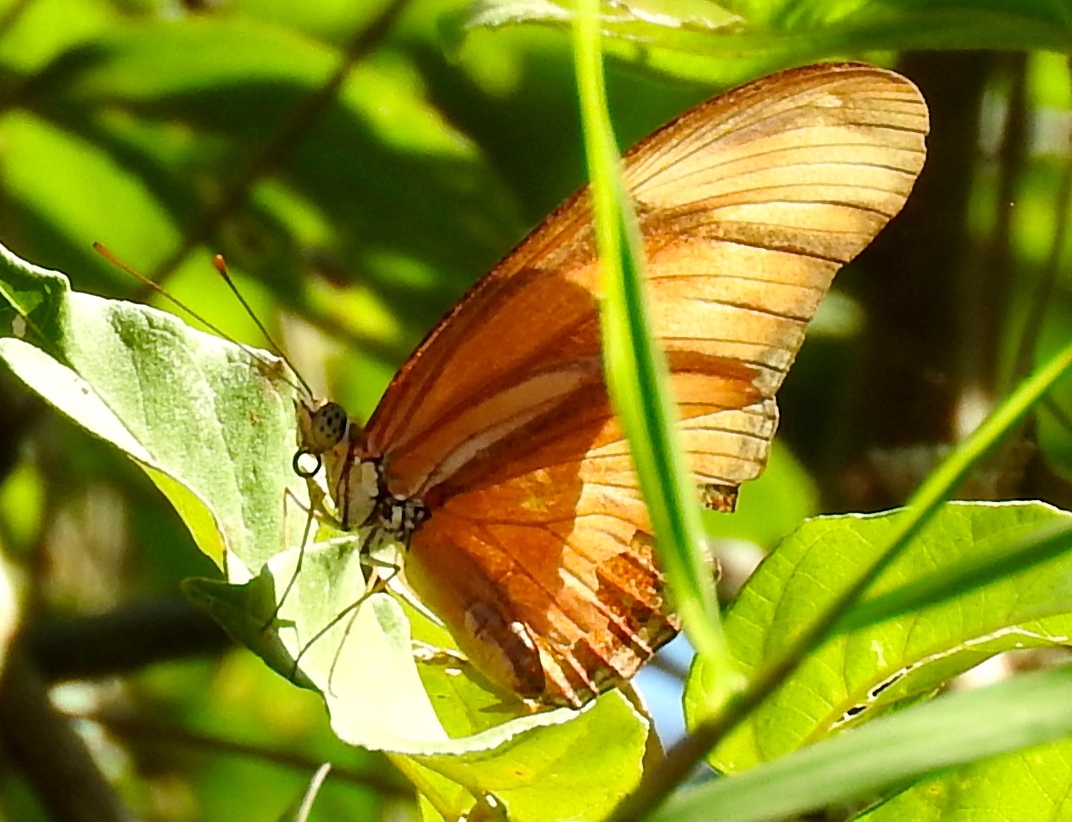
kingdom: Animalia
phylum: Arthropoda
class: Insecta
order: Lepidoptera
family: Nymphalidae
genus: Dryas
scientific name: Dryas iulia
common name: Flambeau
